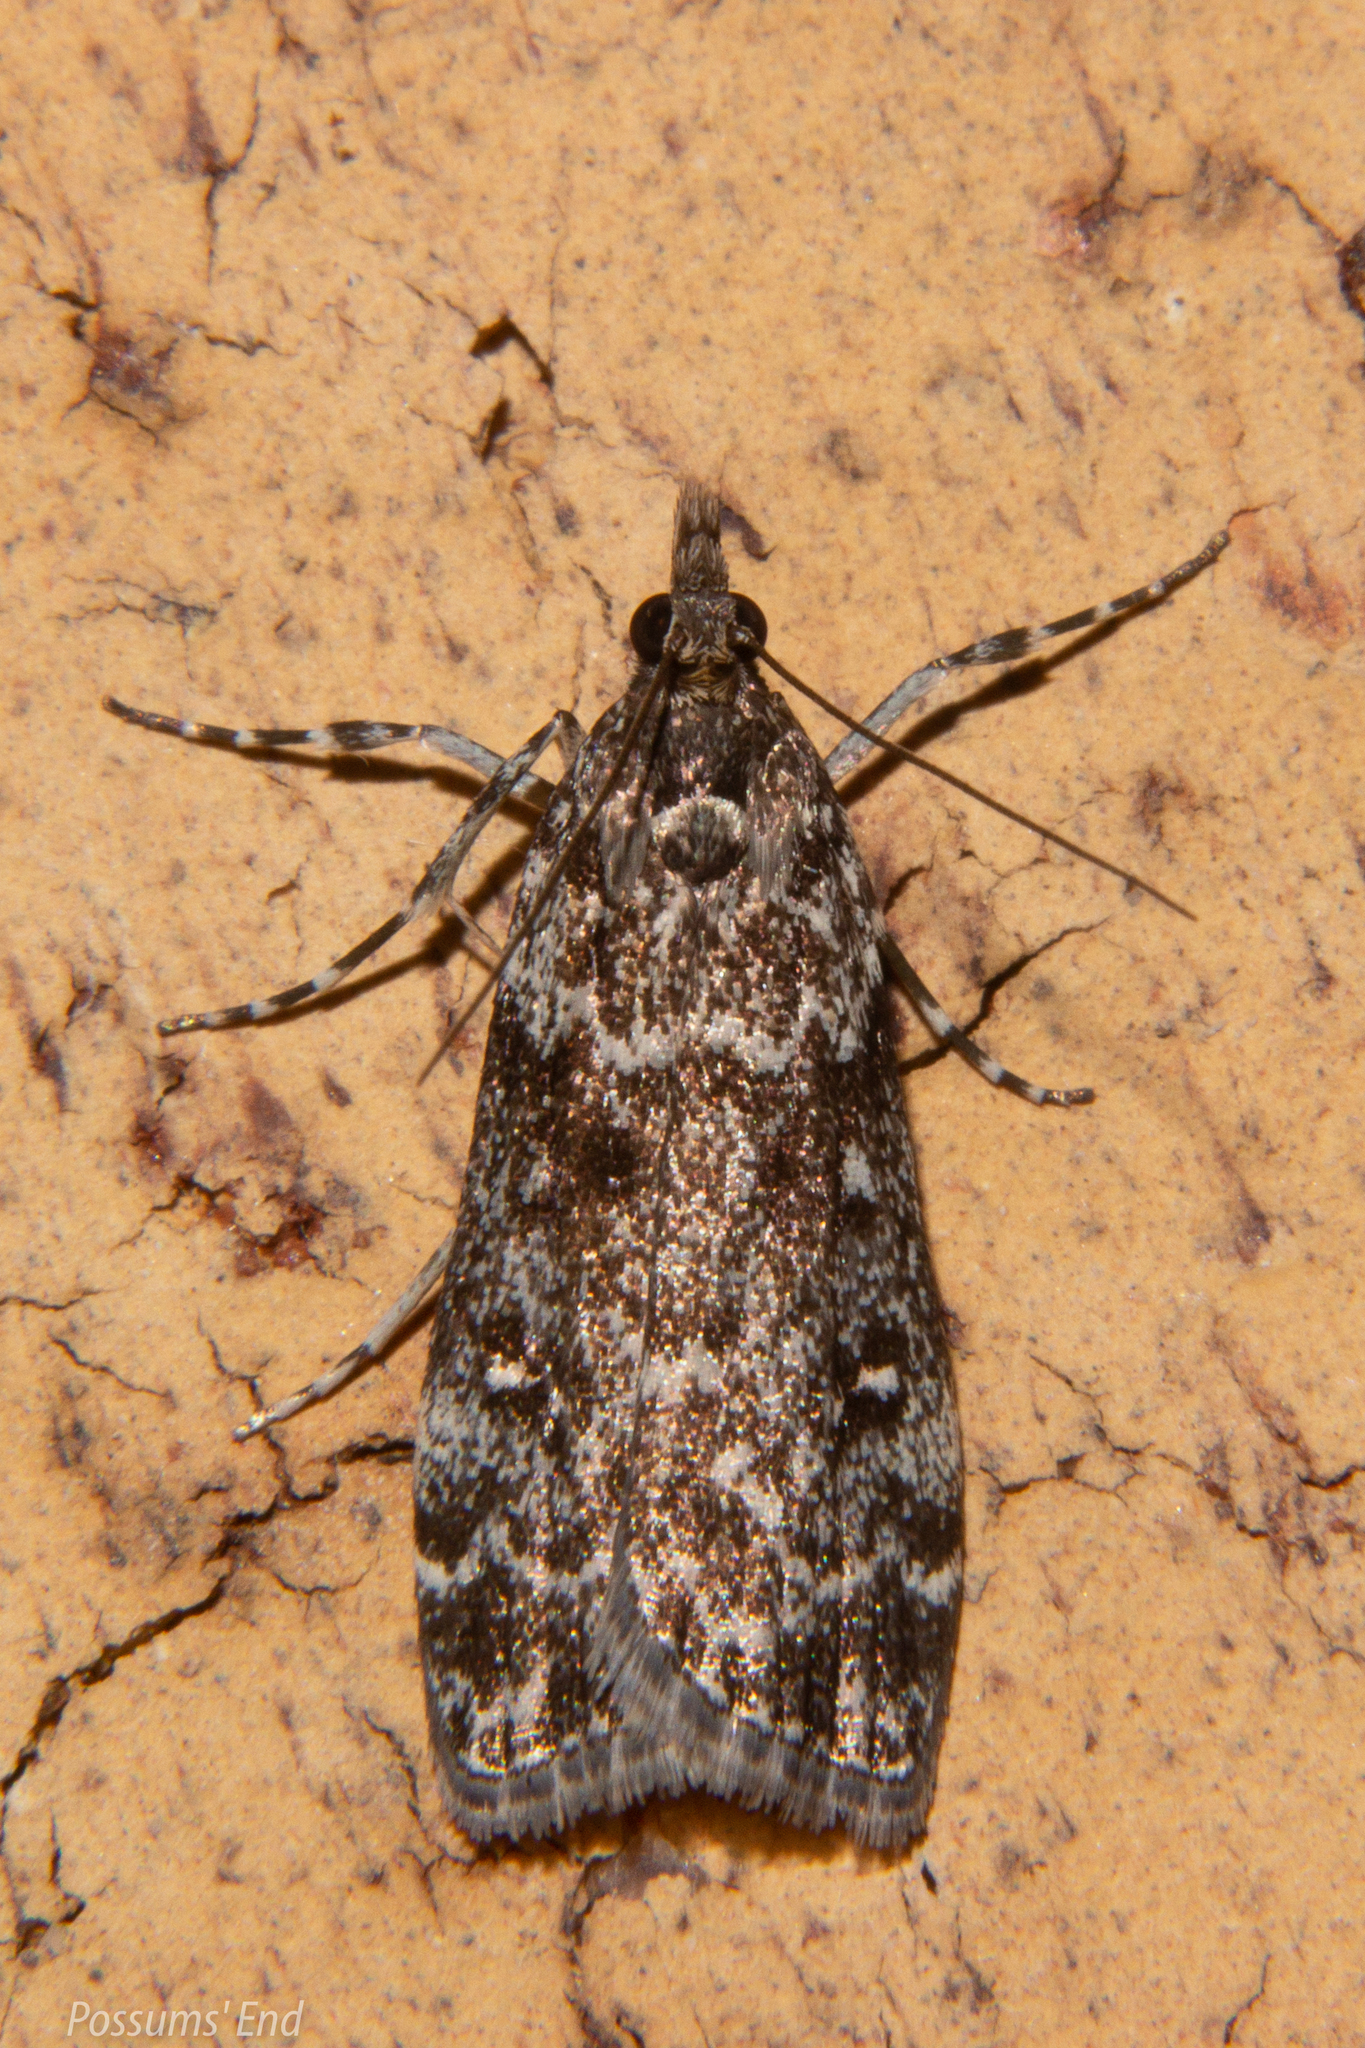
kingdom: Animalia
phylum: Arthropoda
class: Insecta
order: Lepidoptera
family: Crambidae
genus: Eudonia
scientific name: Eudonia philerga
